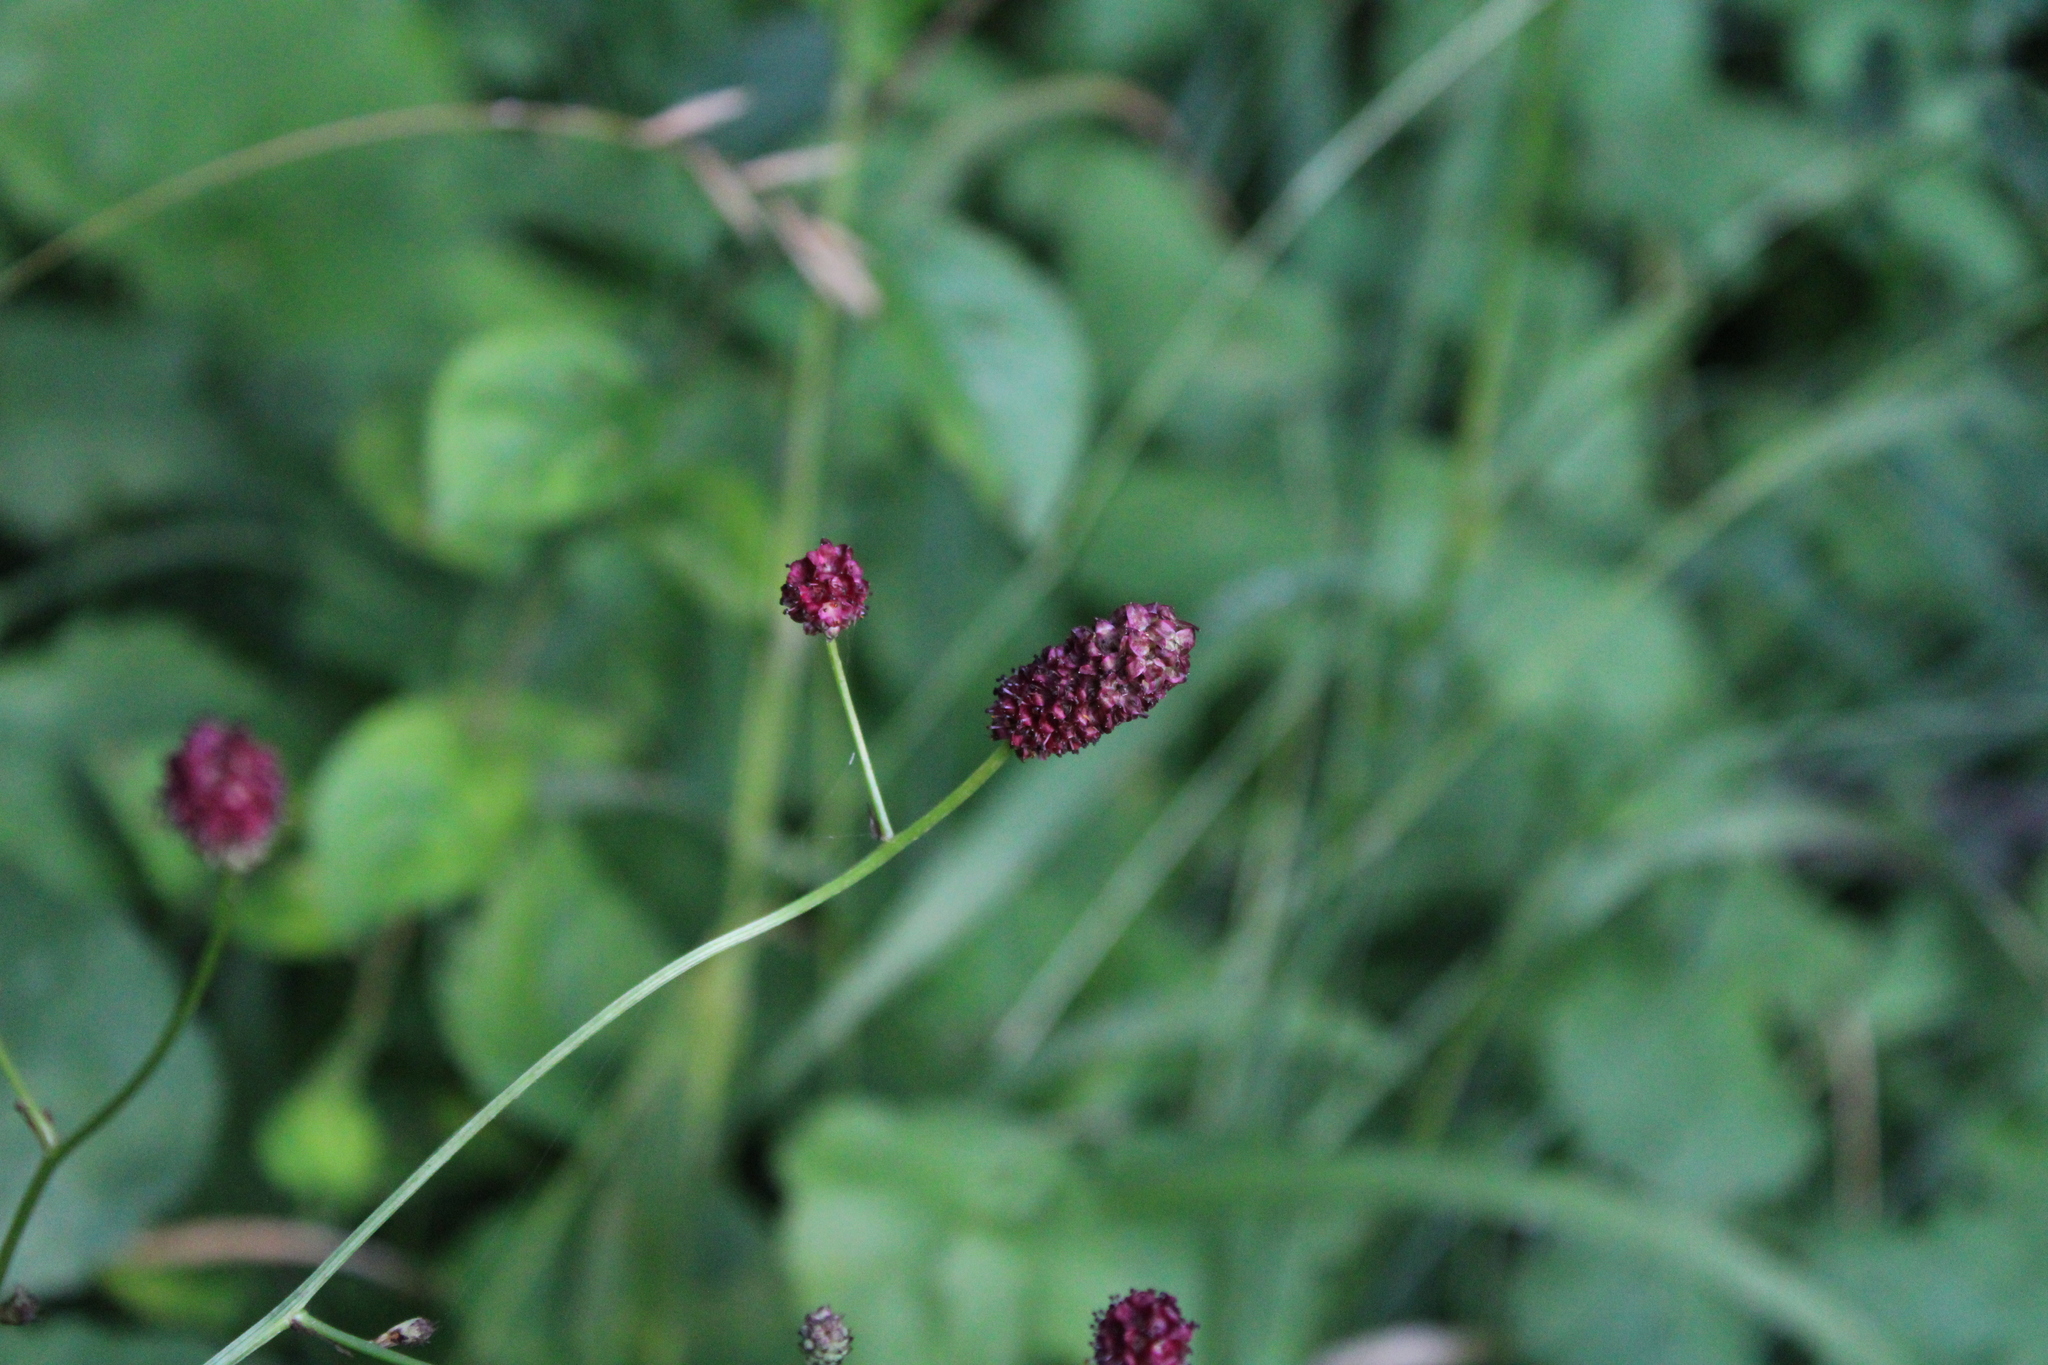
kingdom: Plantae
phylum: Tracheophyta
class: Magnoliopsida
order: Rosales
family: Rosaceae
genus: Sanguisorba
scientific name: Sanguisorba officinalis
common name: Great burnet
